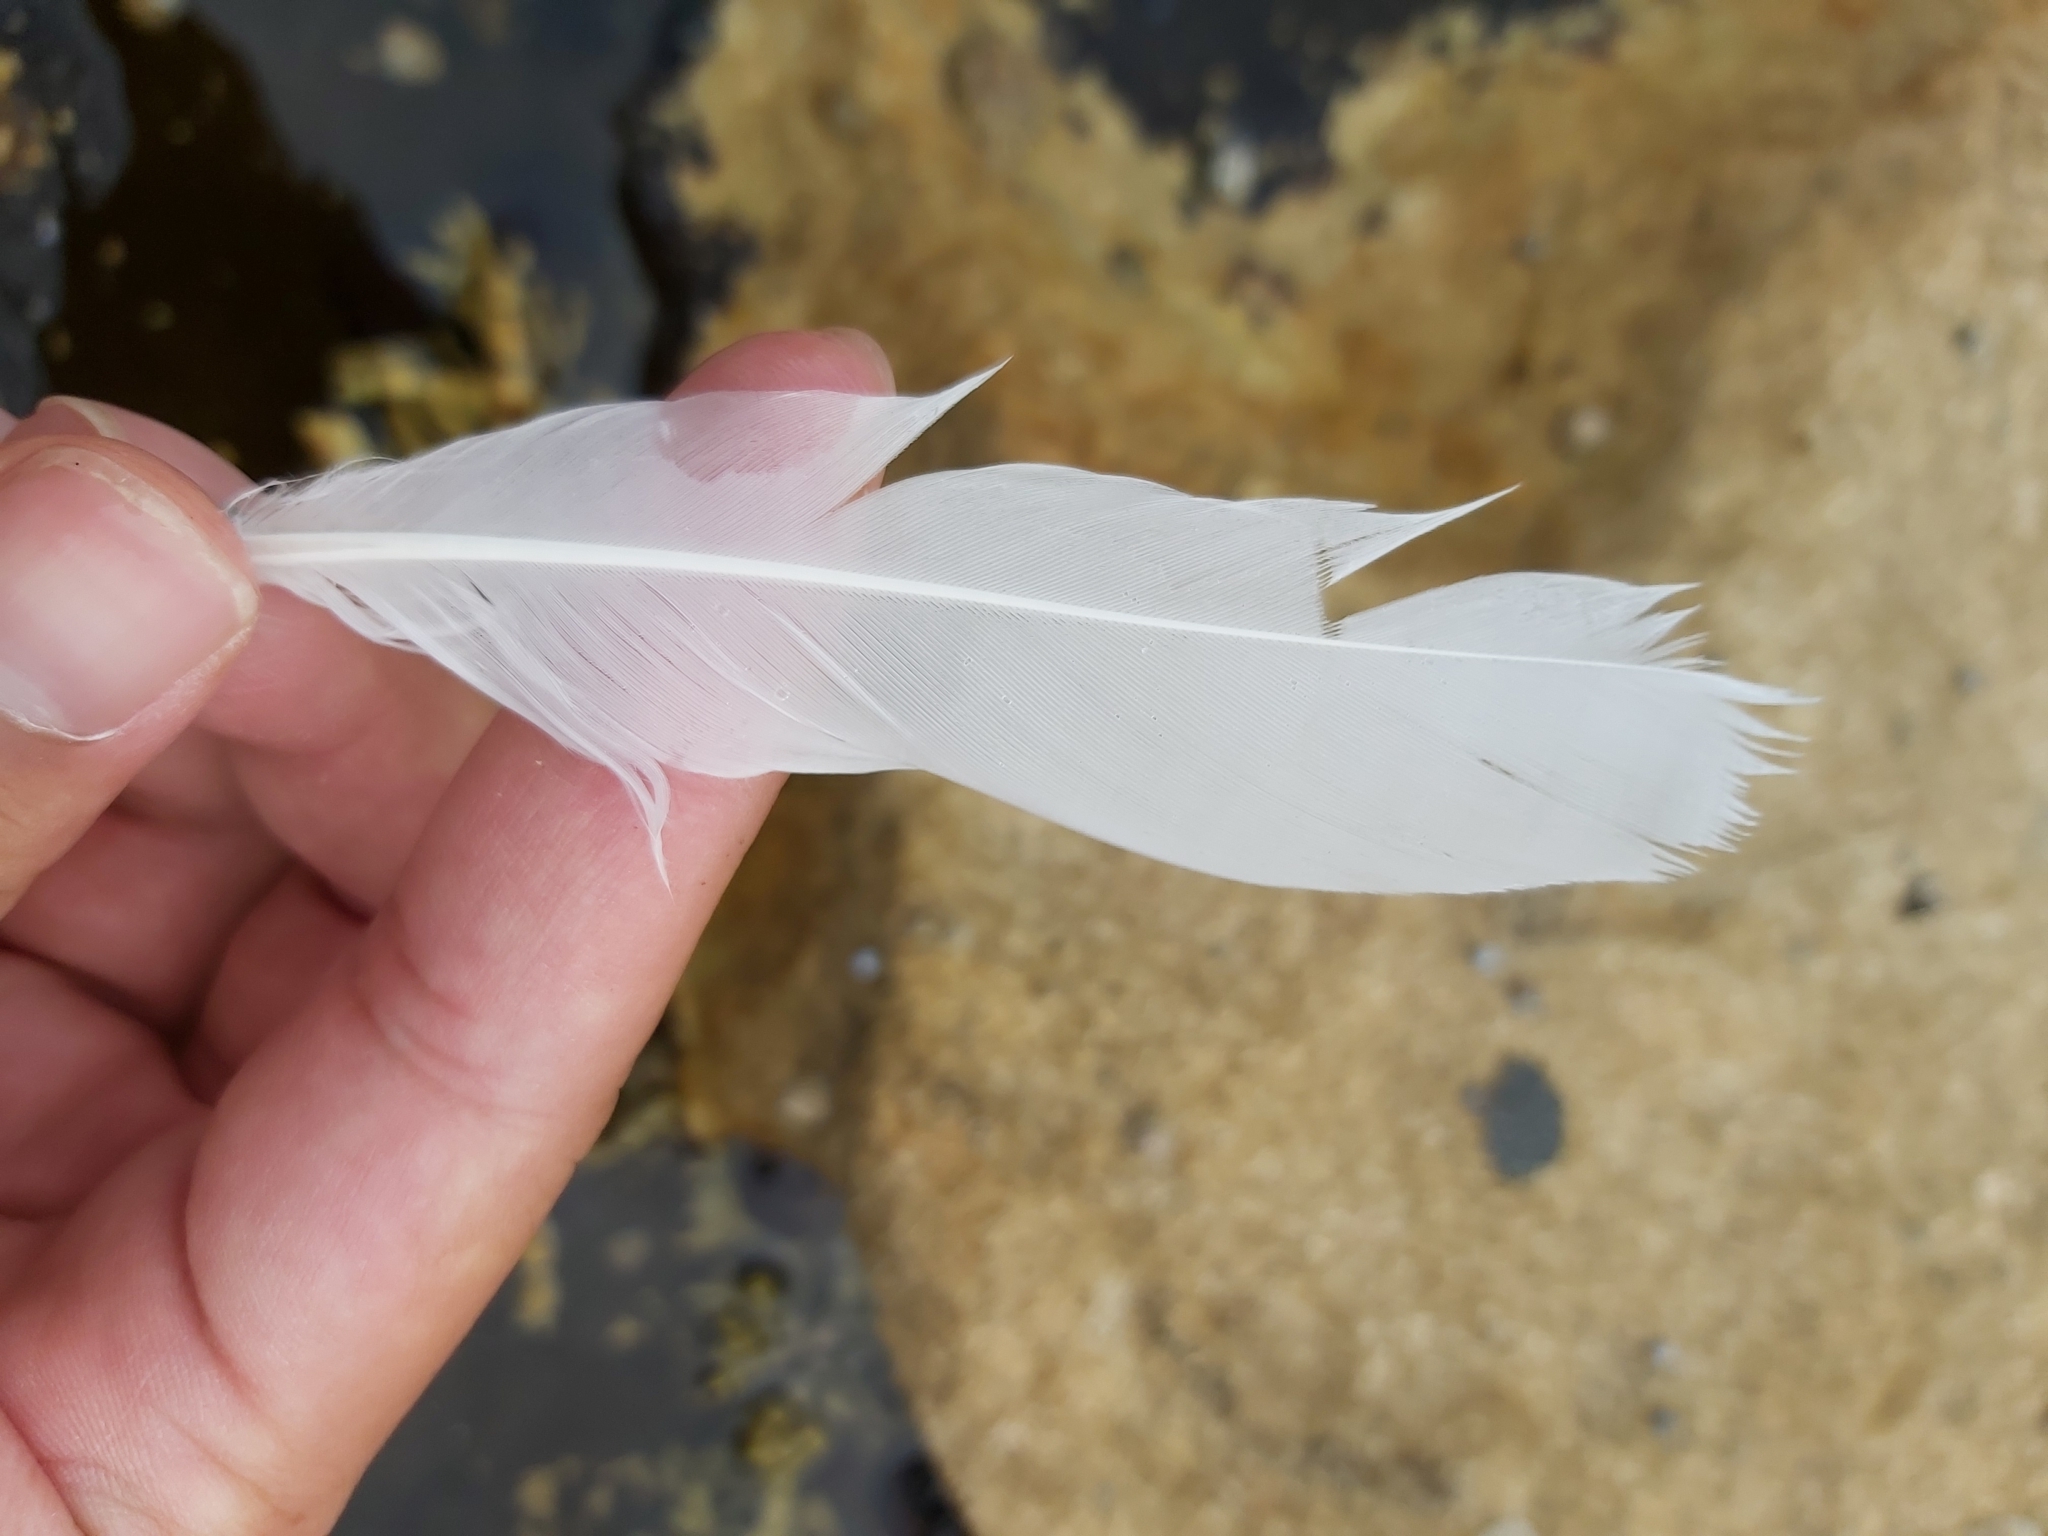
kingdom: Animalia
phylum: Chordata
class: Aves
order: Charadriiformes
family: Laridae
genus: Chroicocephalus
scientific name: Chroicocephalus novaehollandiae
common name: Silver gull
